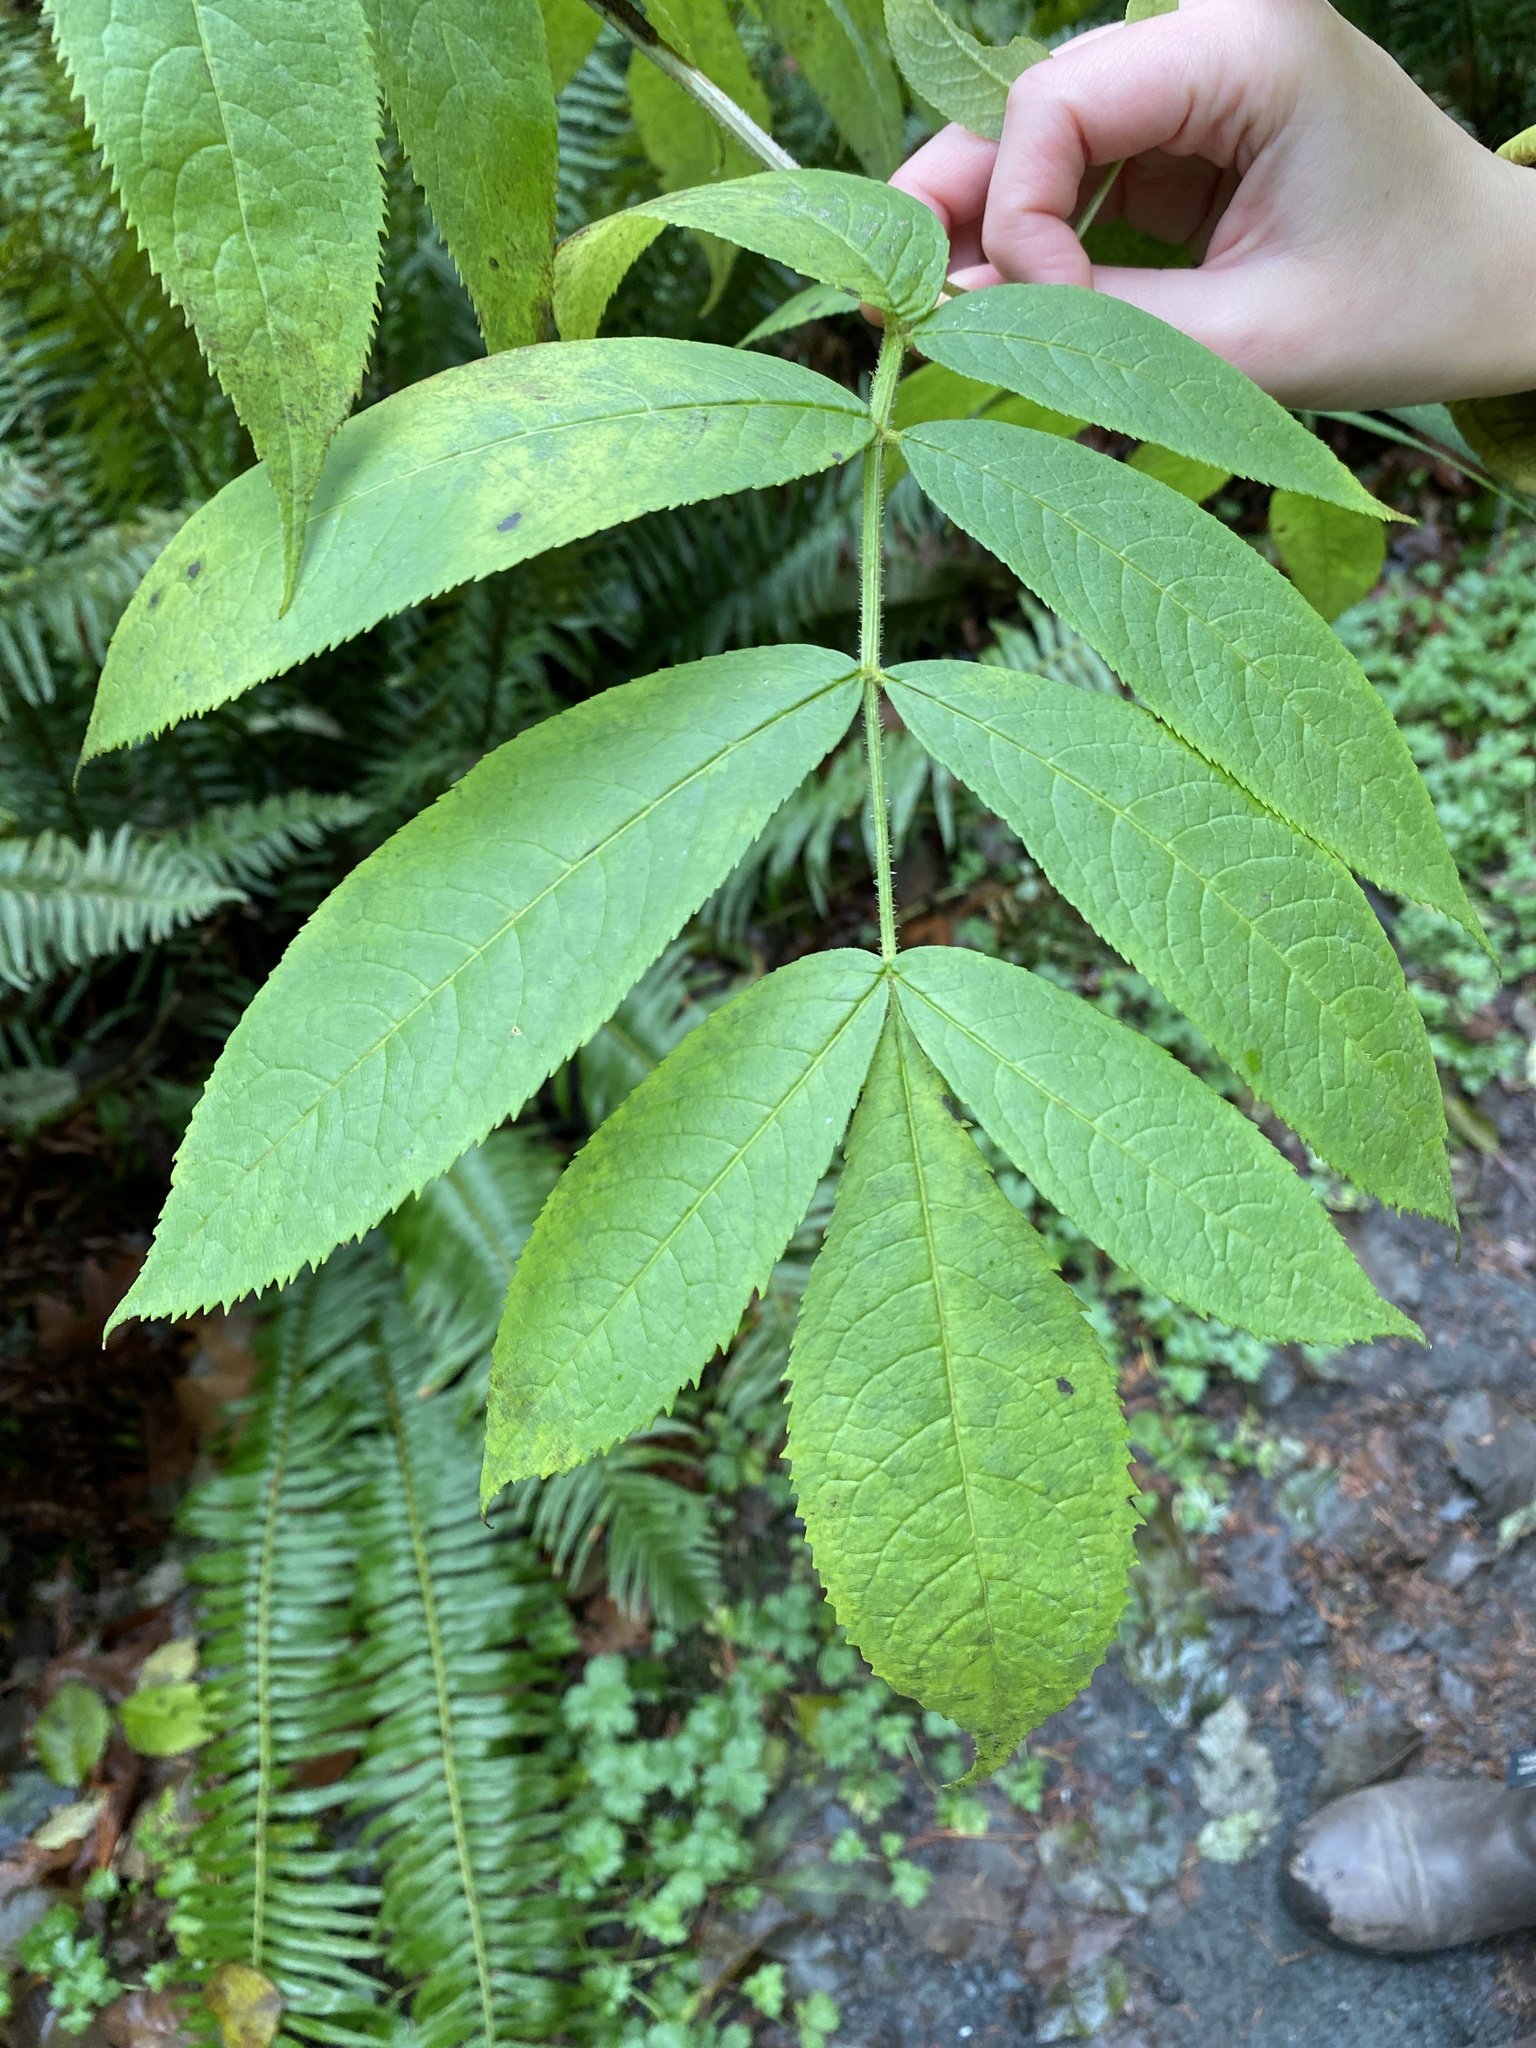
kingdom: Plantae
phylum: Tracheophyta
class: Magnoliopsida
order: Dipsacales
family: Viburnaceae
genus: Sambucus
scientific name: Sambucus racemosa
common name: Red-berried elder
